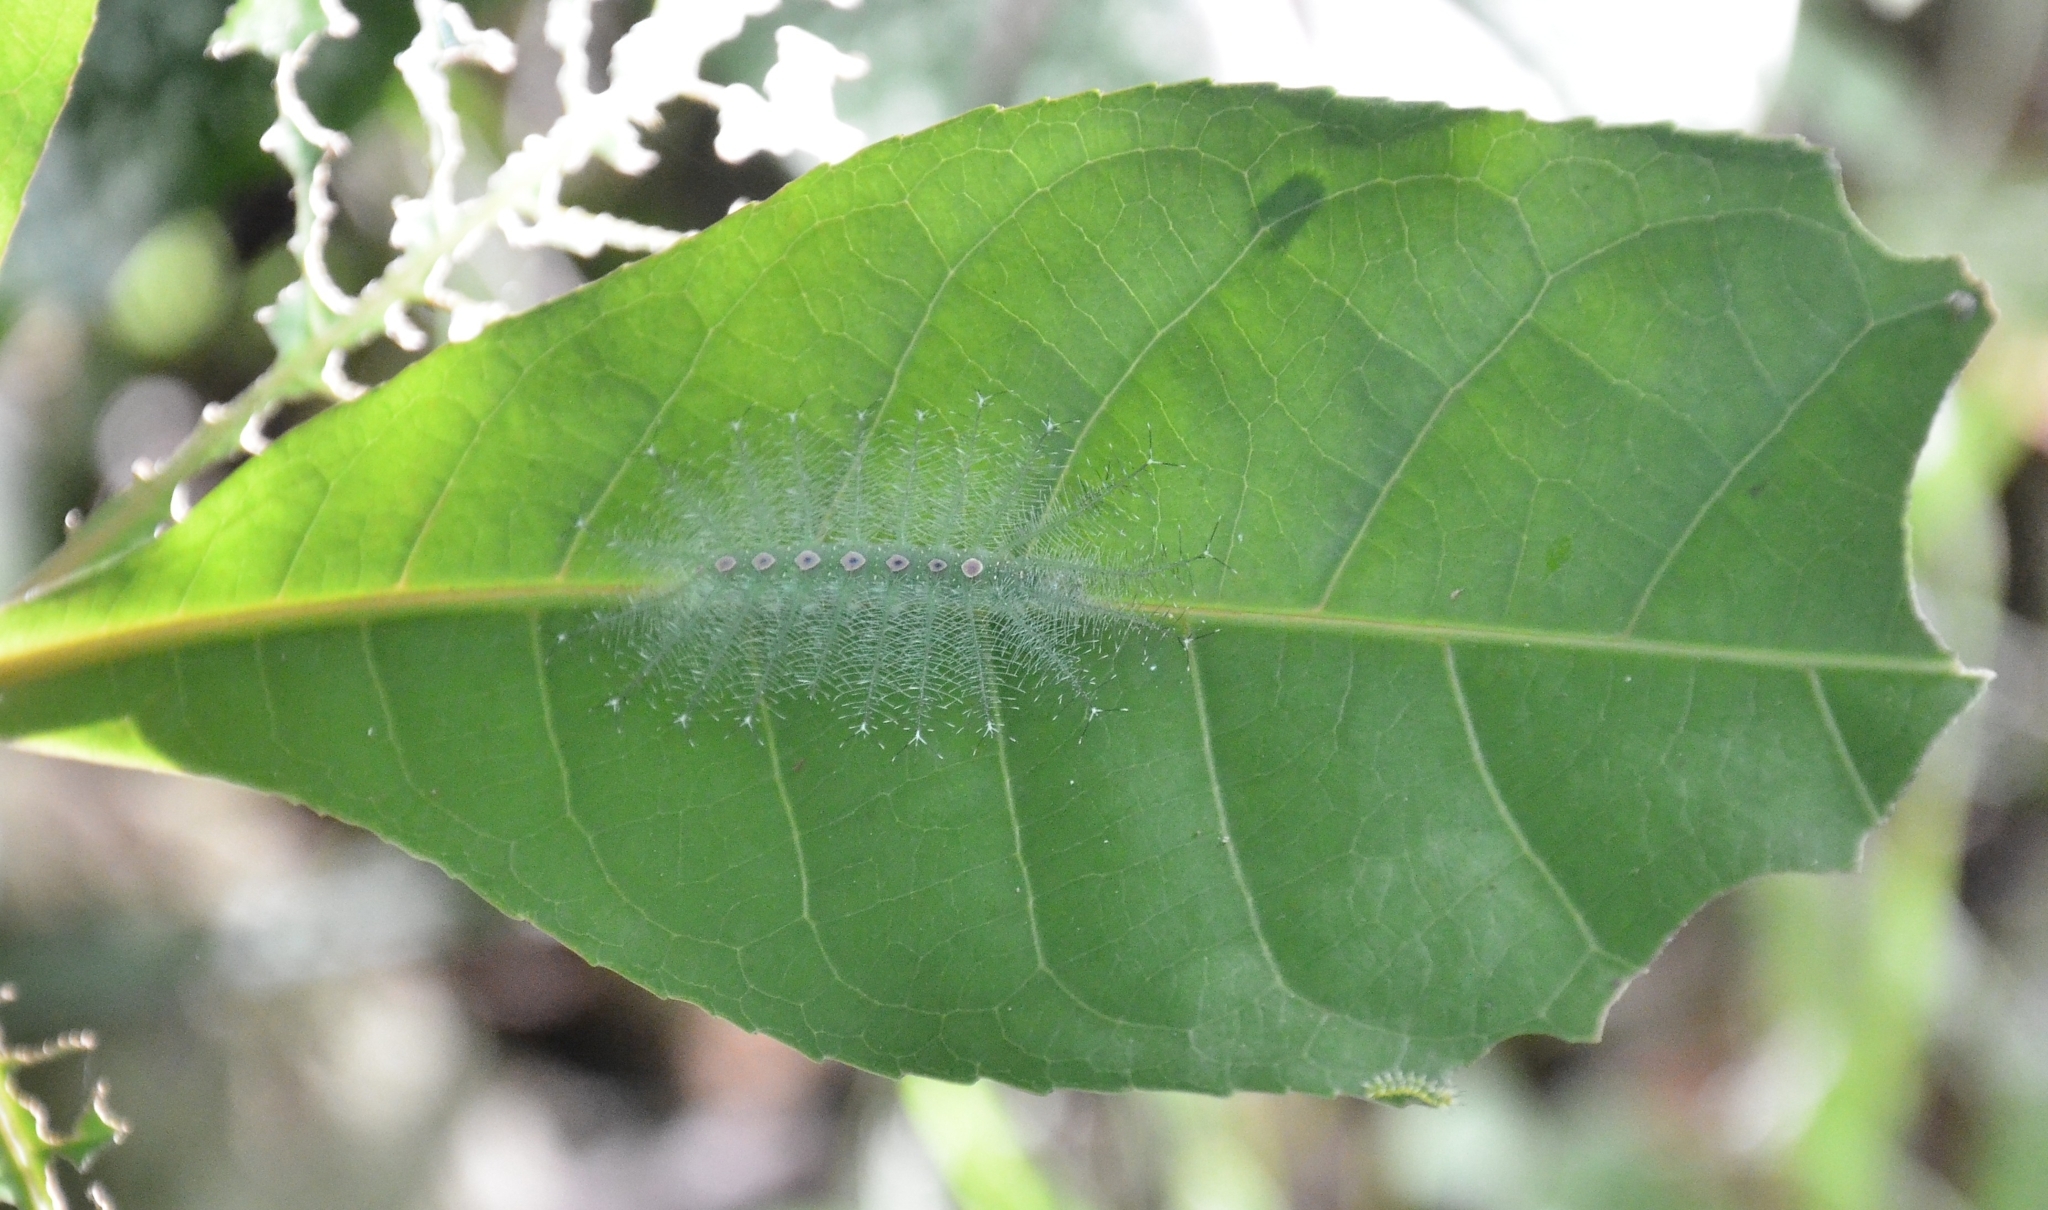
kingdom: Animalia
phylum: Arthropoda
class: Insecta
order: Lepidoptera
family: Nymphalidae
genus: Tanaecia
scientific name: Tanaecia lepidea
